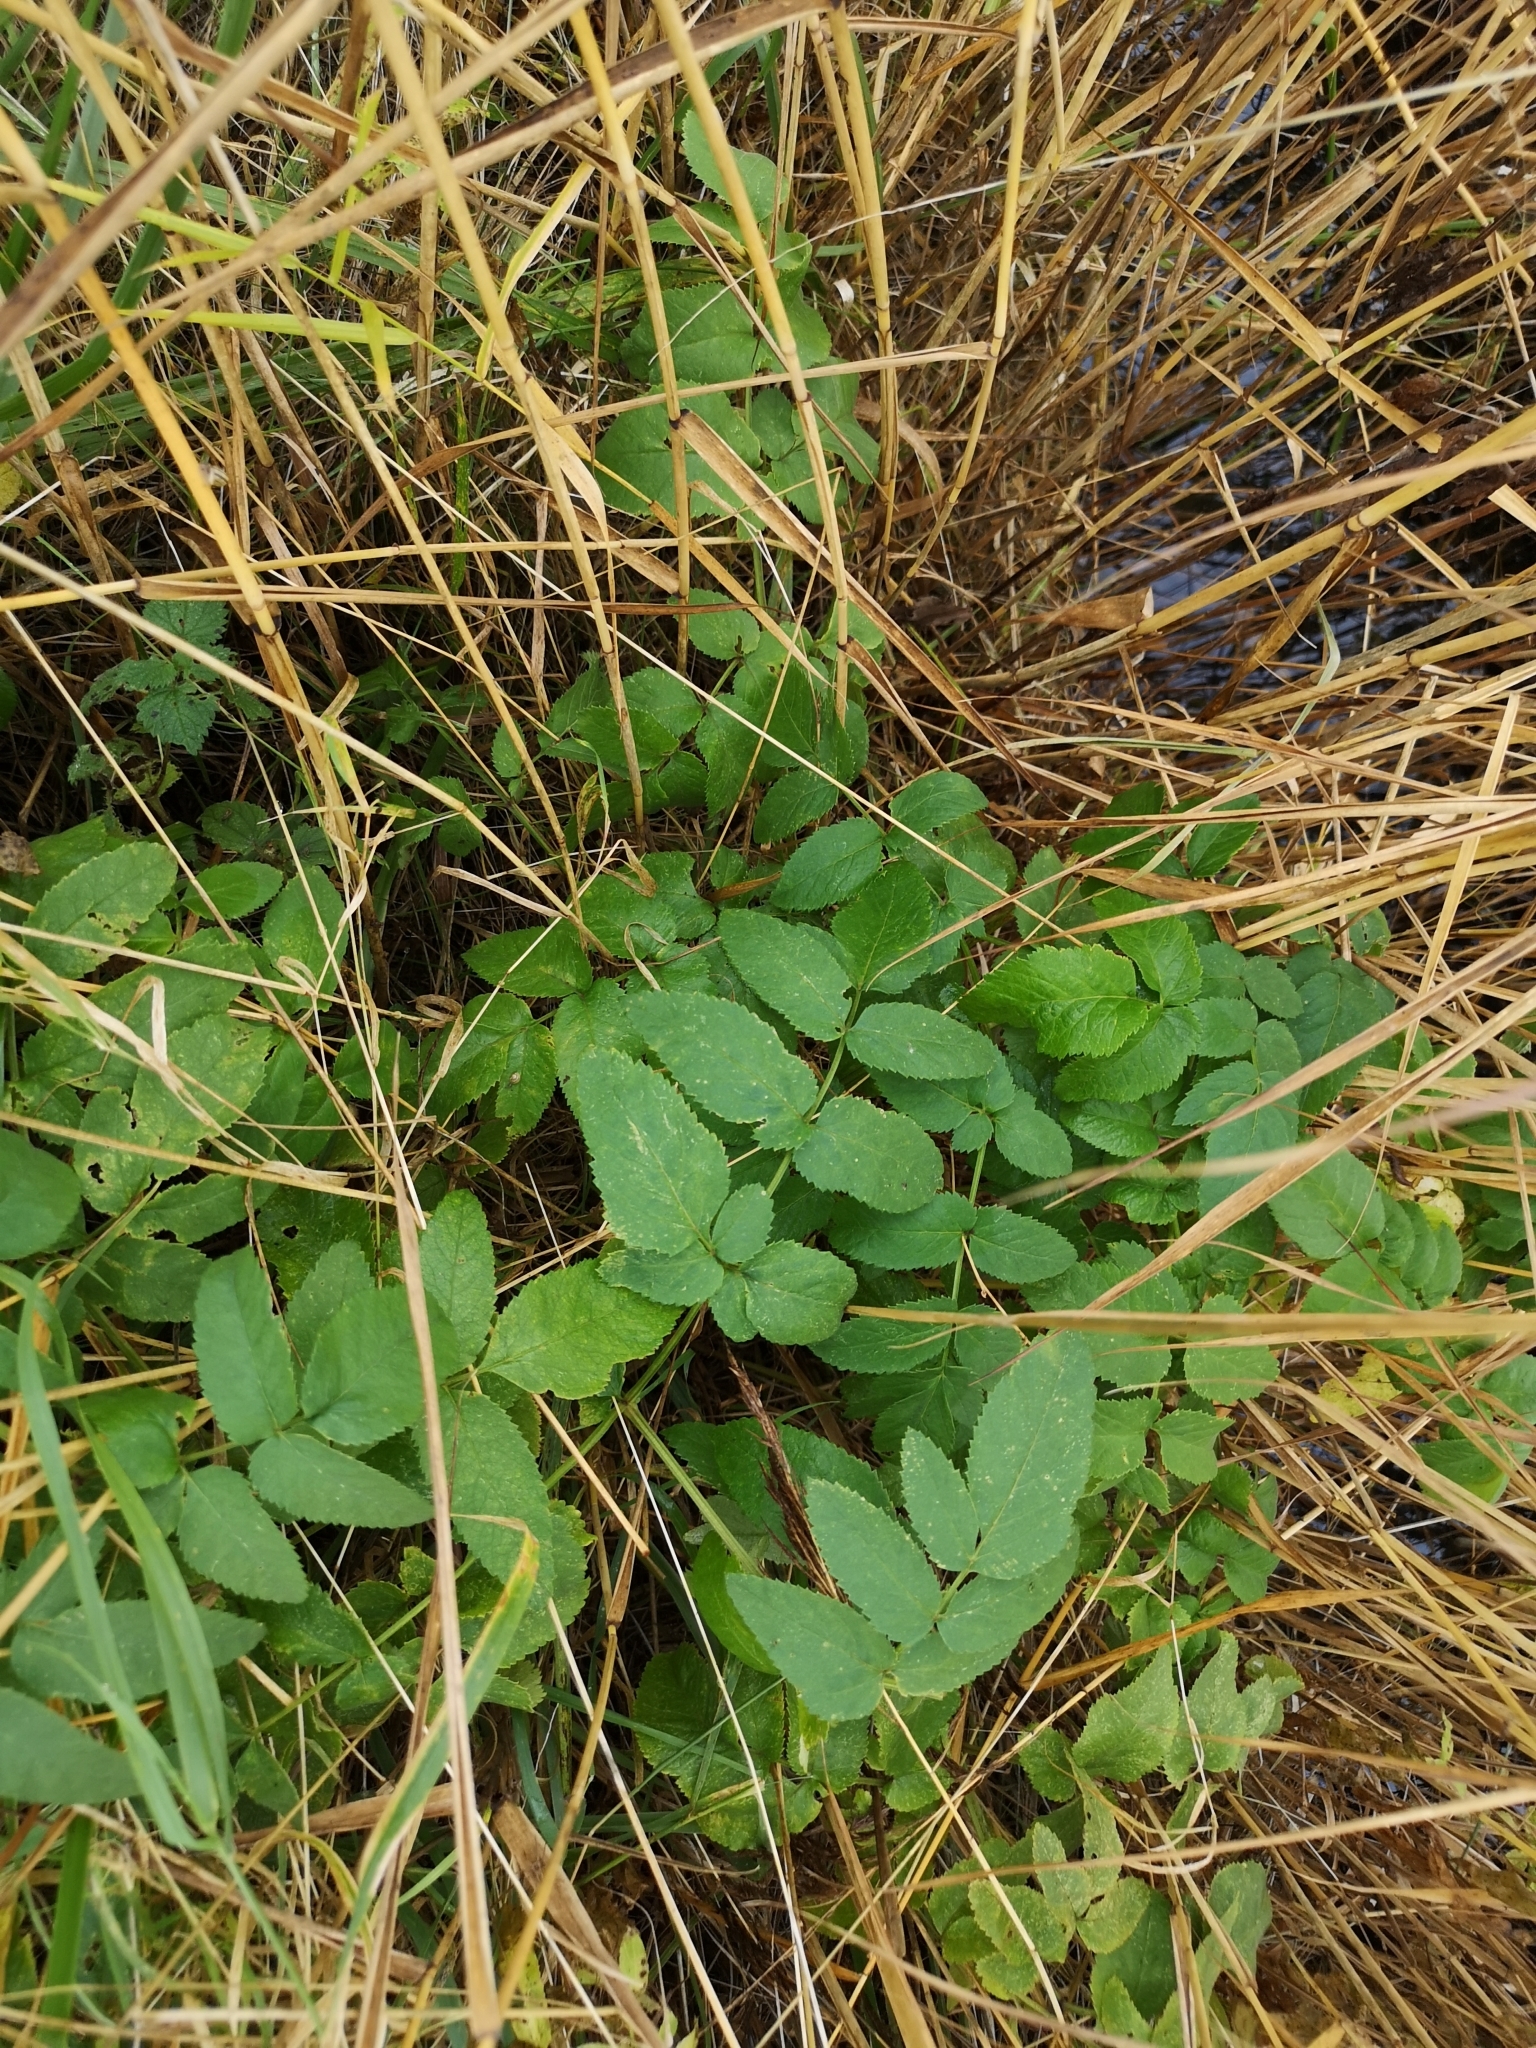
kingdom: Plantae
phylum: Tracheophyta
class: Magnoliopsida
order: Apiales
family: Apiaceae
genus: Angelica
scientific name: Angelica sylvestris
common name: Wild angelica
